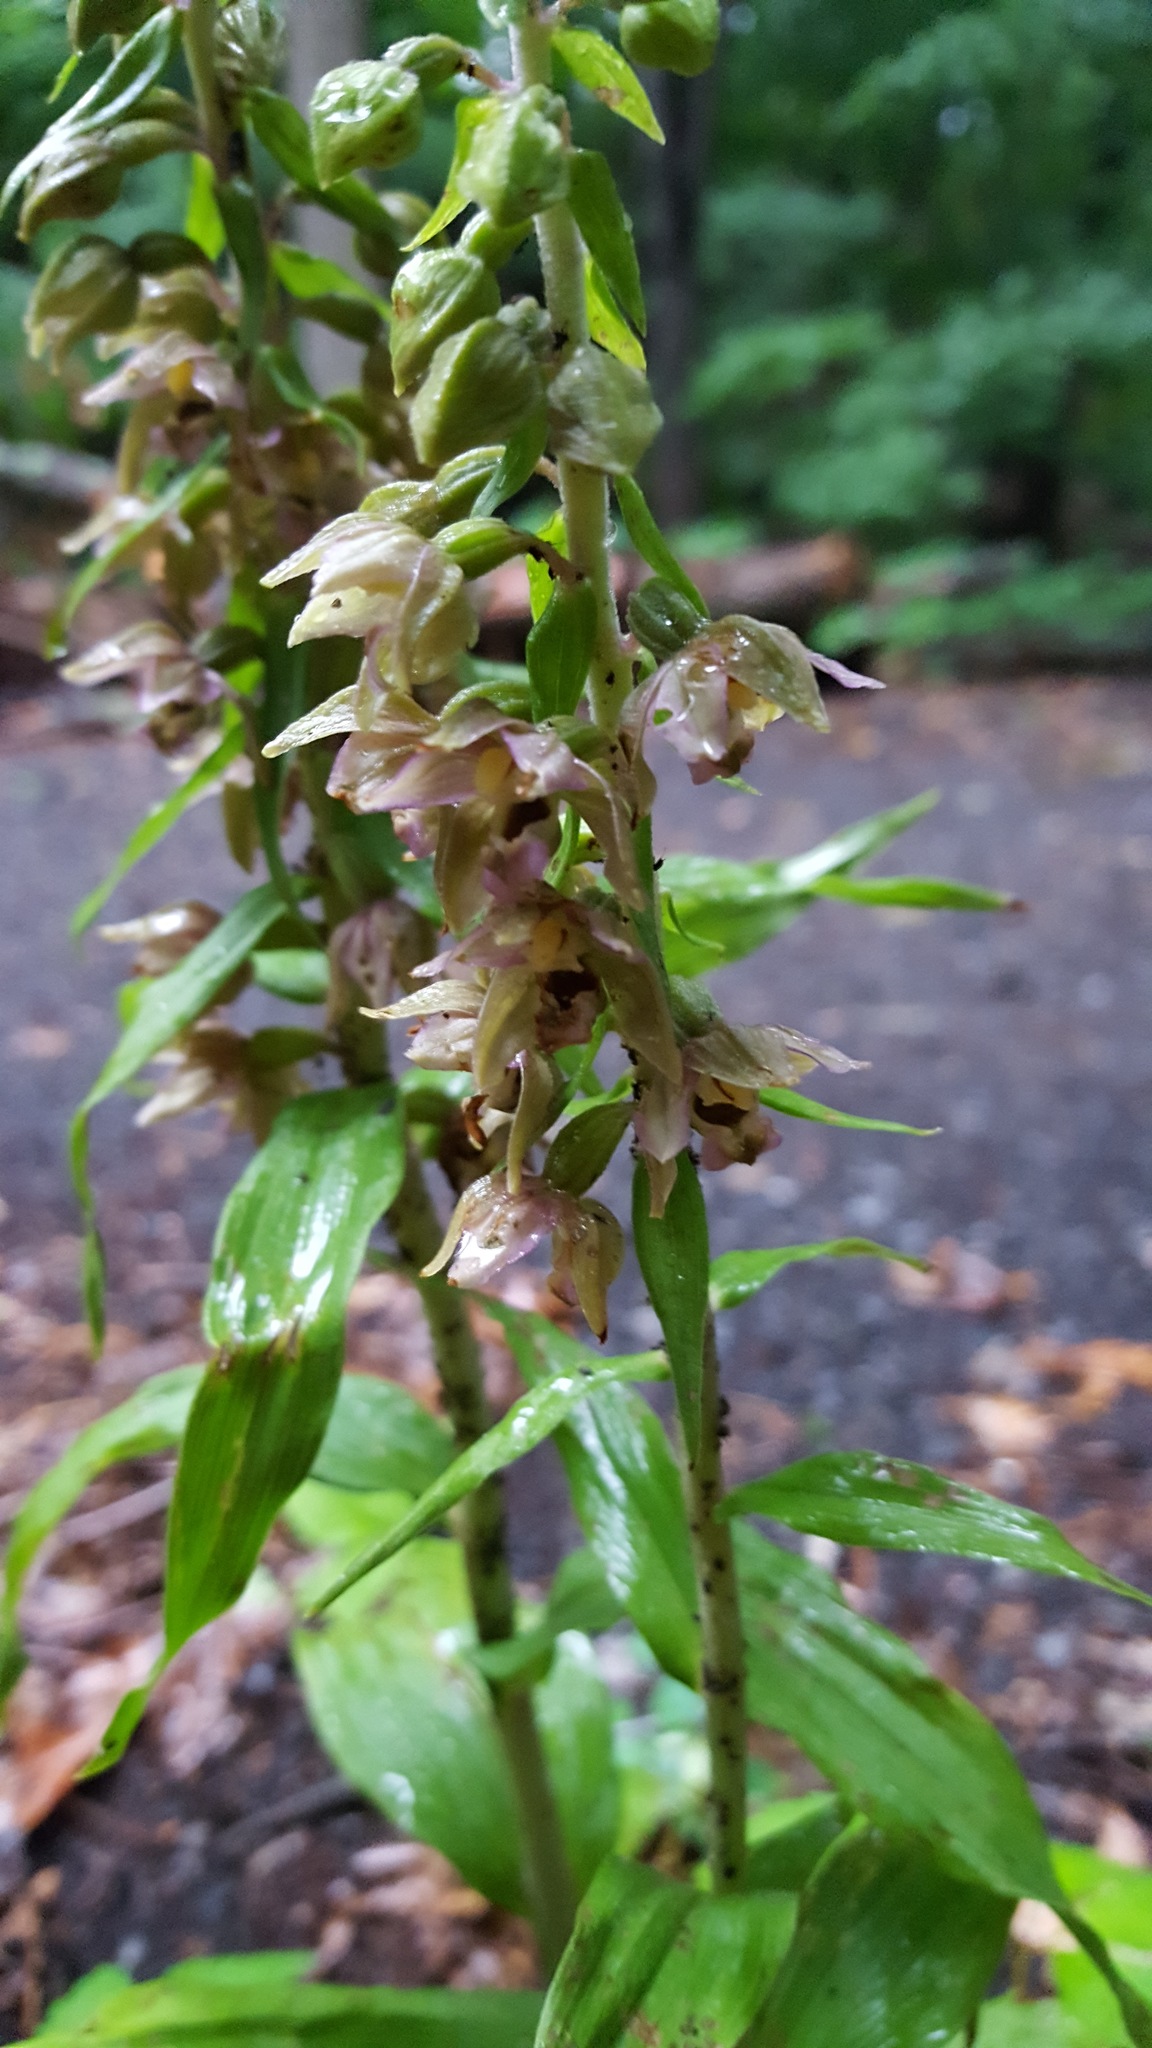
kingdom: Plantae
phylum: Tracheophyta
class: Liliopsida
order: Asparagales
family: Orchidaceae
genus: Epipactis
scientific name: Epipactis helleborine
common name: Broad-leaved helleborine
